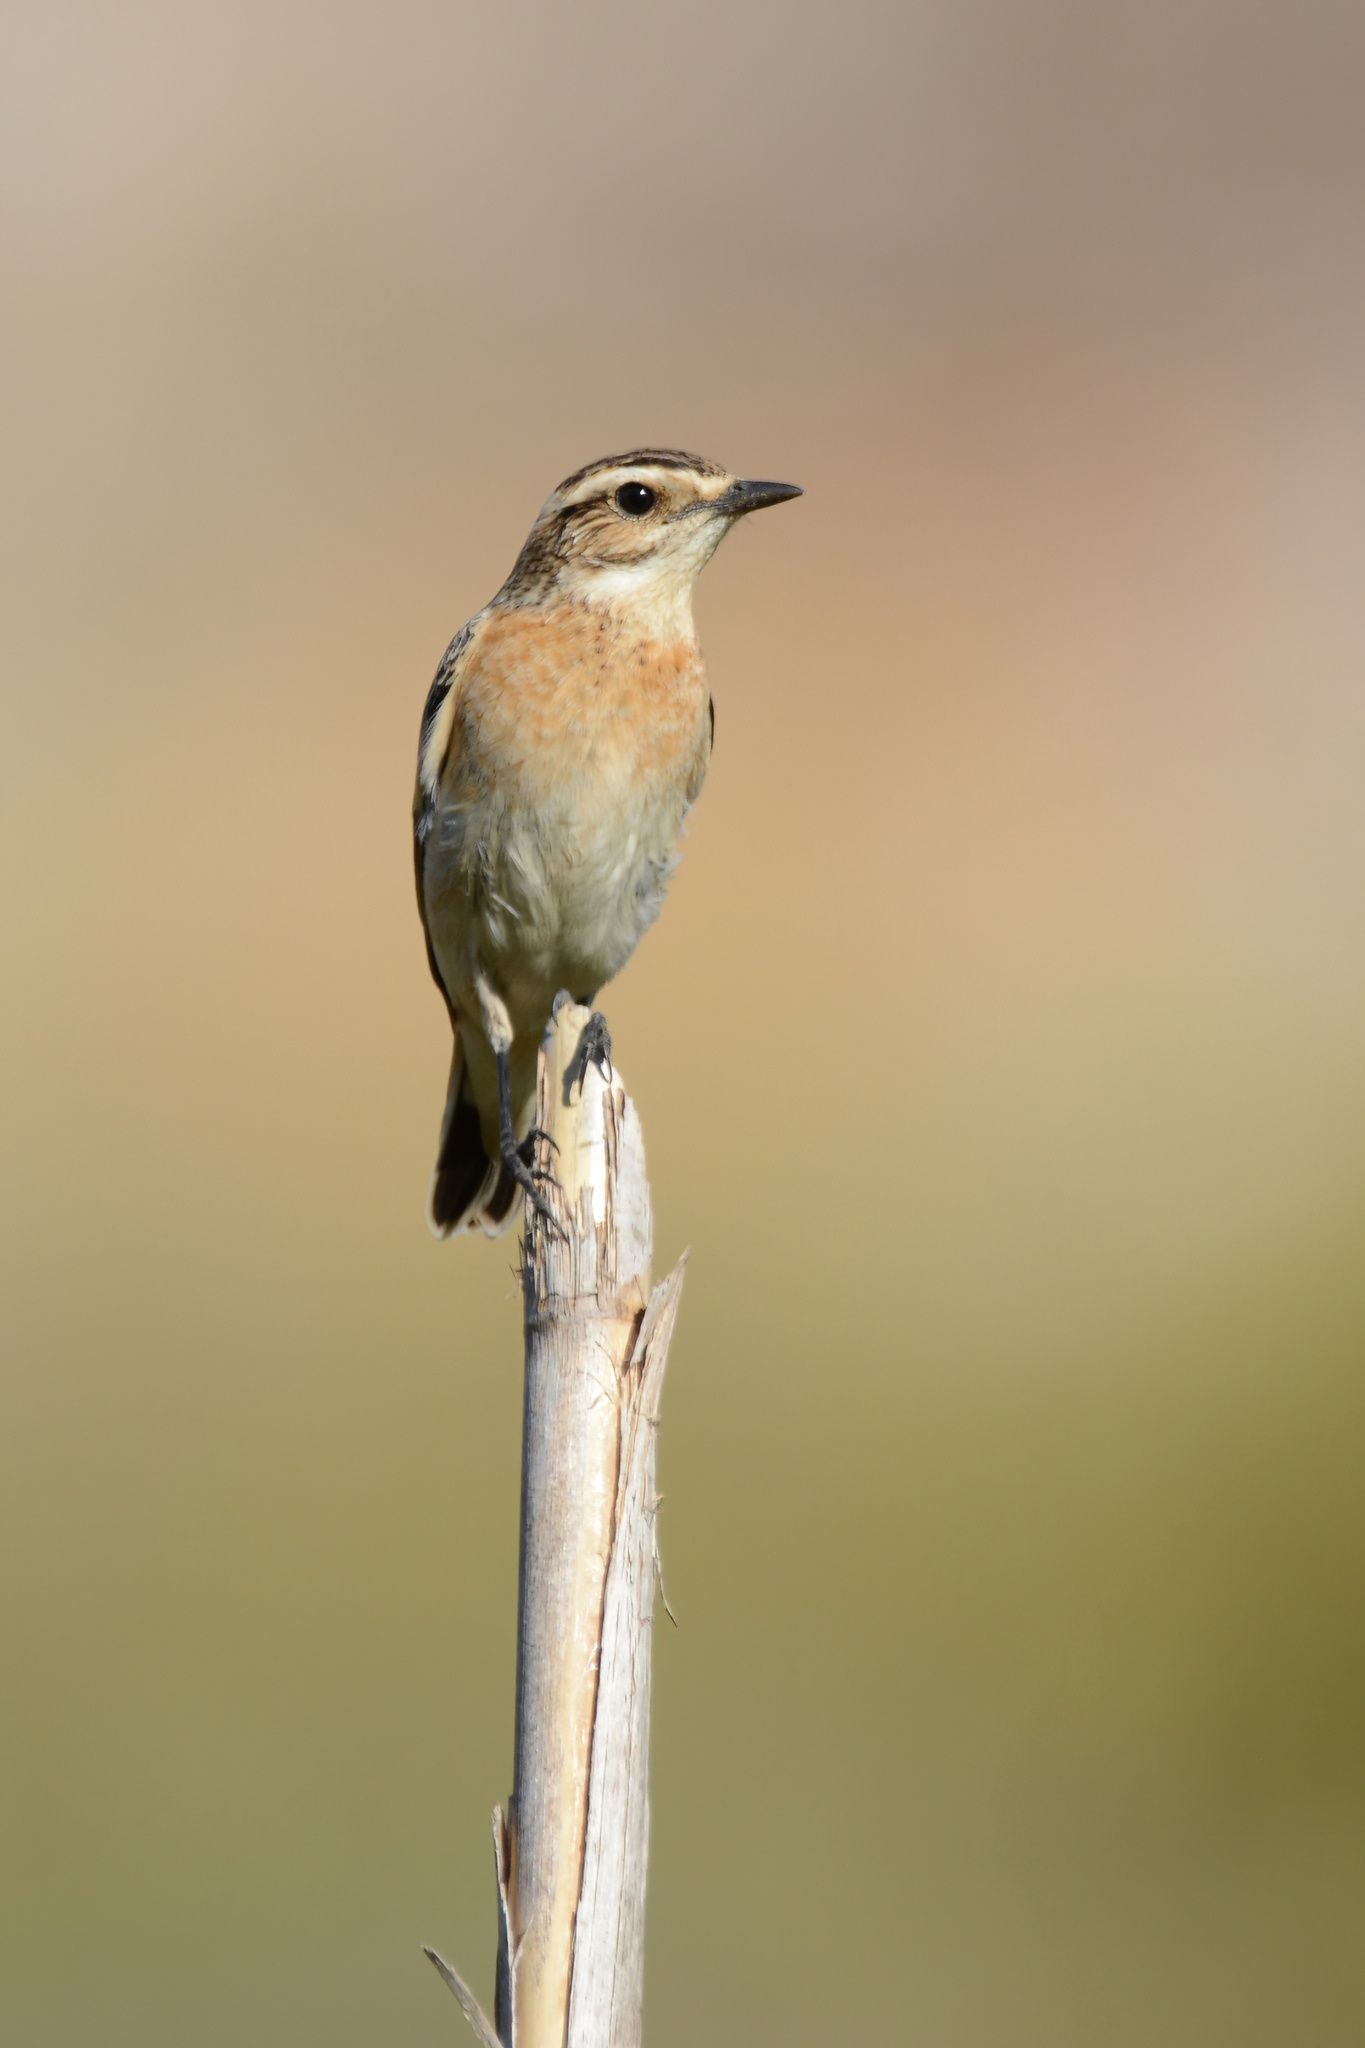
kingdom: Animalia
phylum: Chordata
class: Aves
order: Passeriformes
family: Muscicapidae
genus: Saxicola
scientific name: Saxicola rubetra
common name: Whinchat
